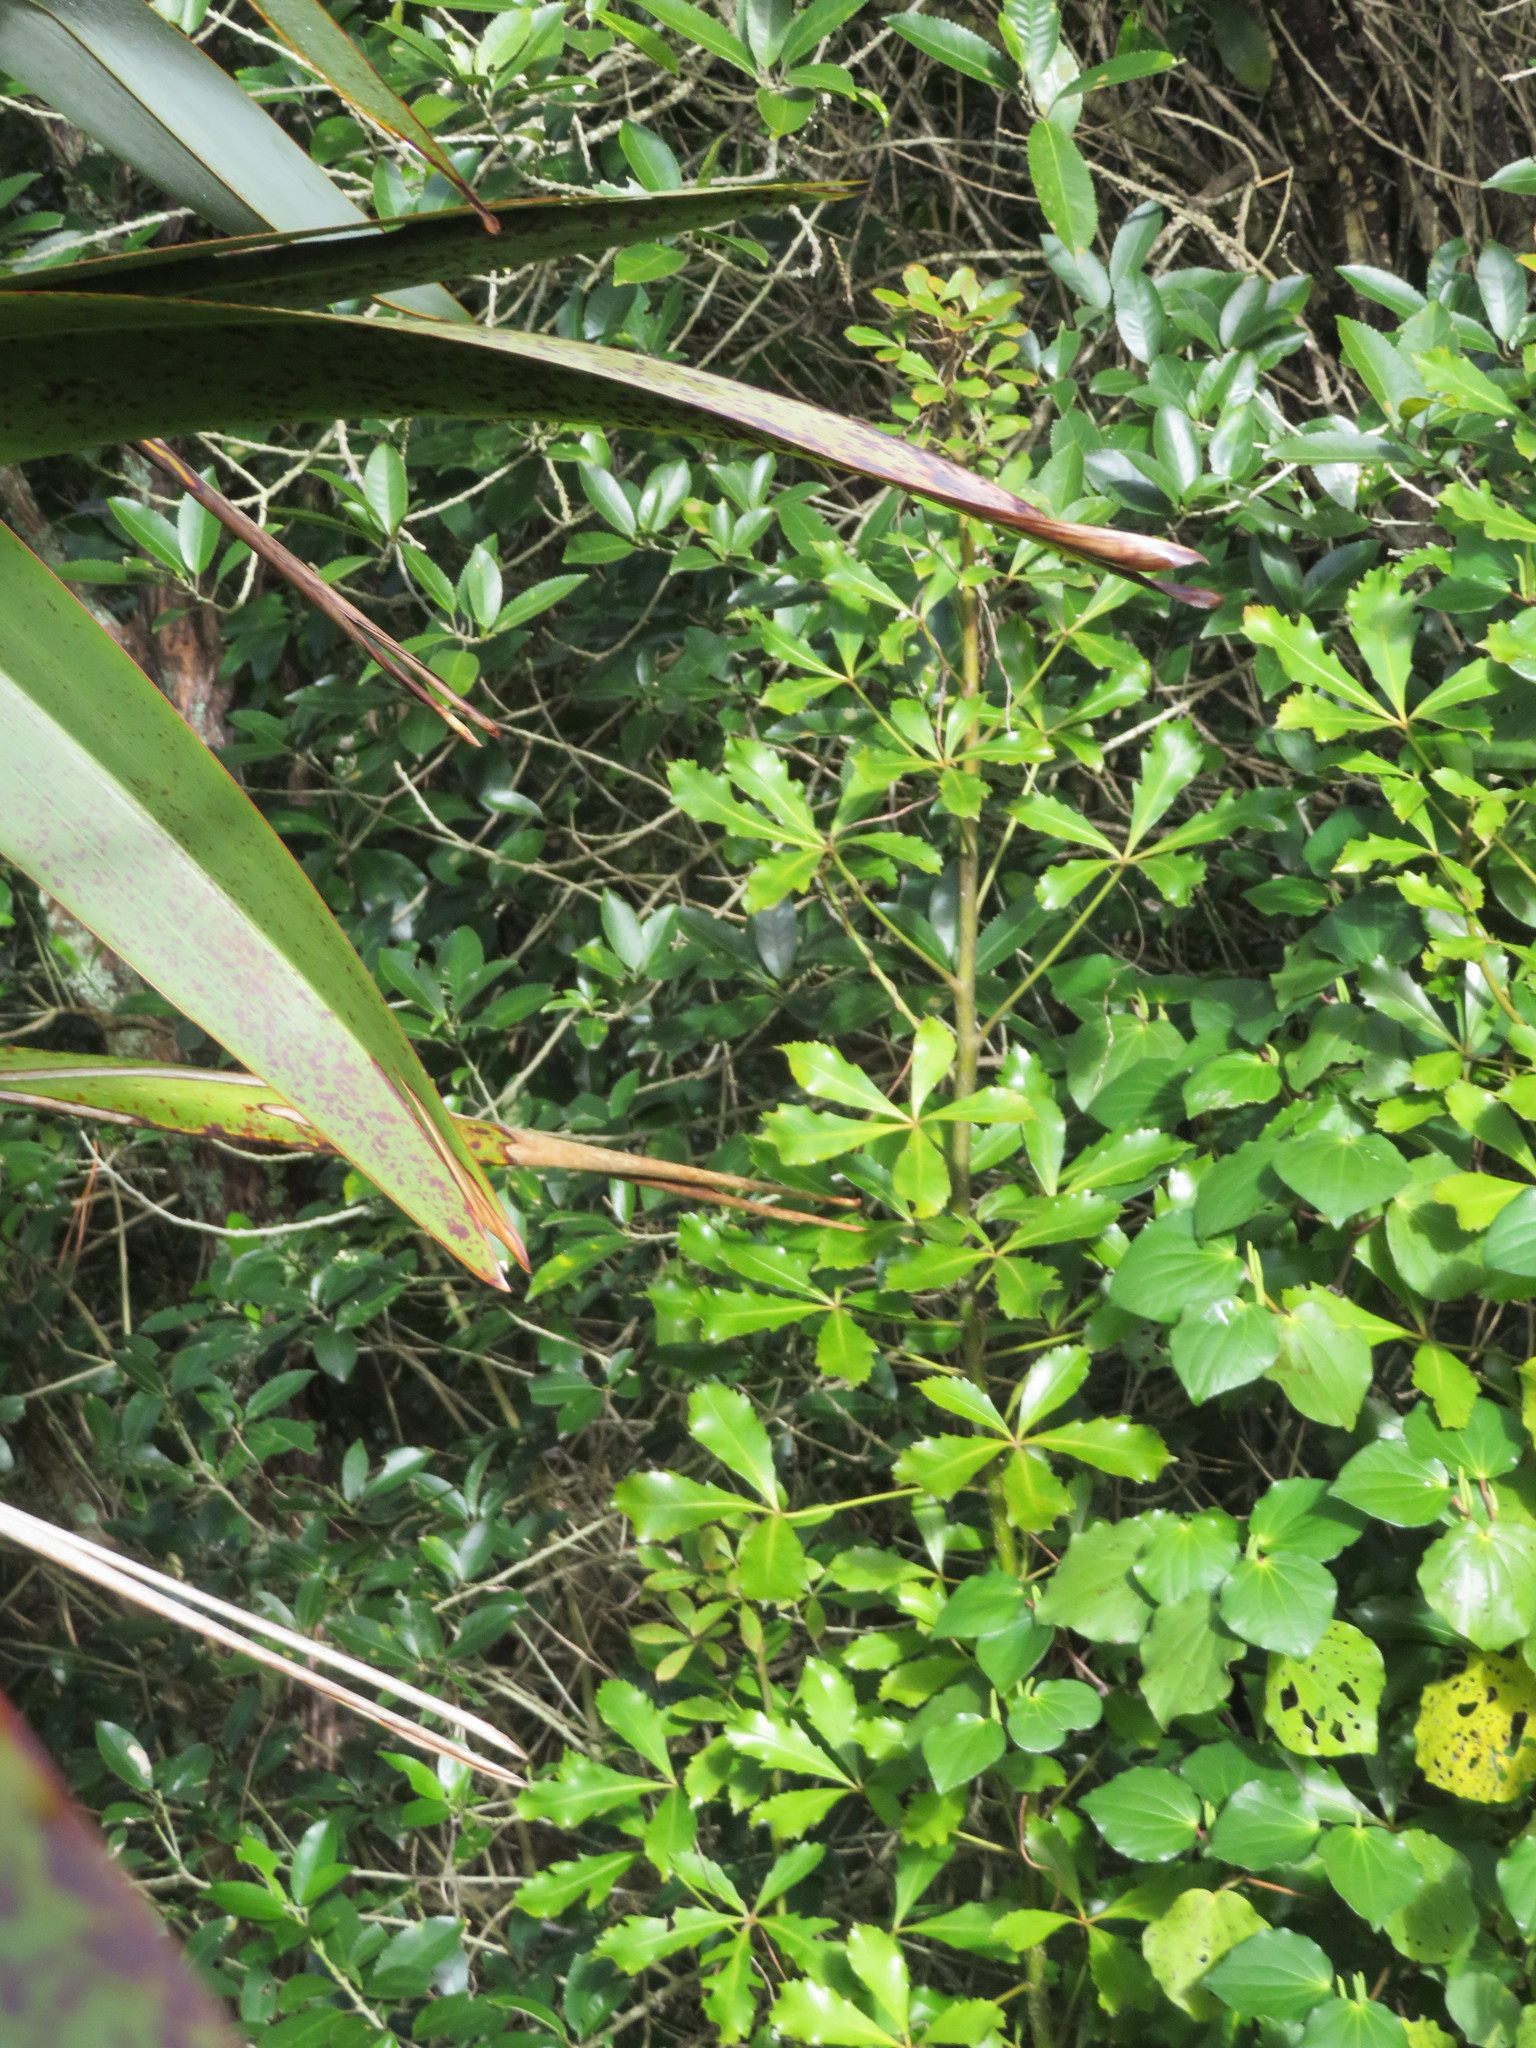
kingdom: Plantae
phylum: Tracheophyta
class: Magnoliopsida
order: Apiales
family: Araliaceae
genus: Pseudopanax
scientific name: Pseudopanax
